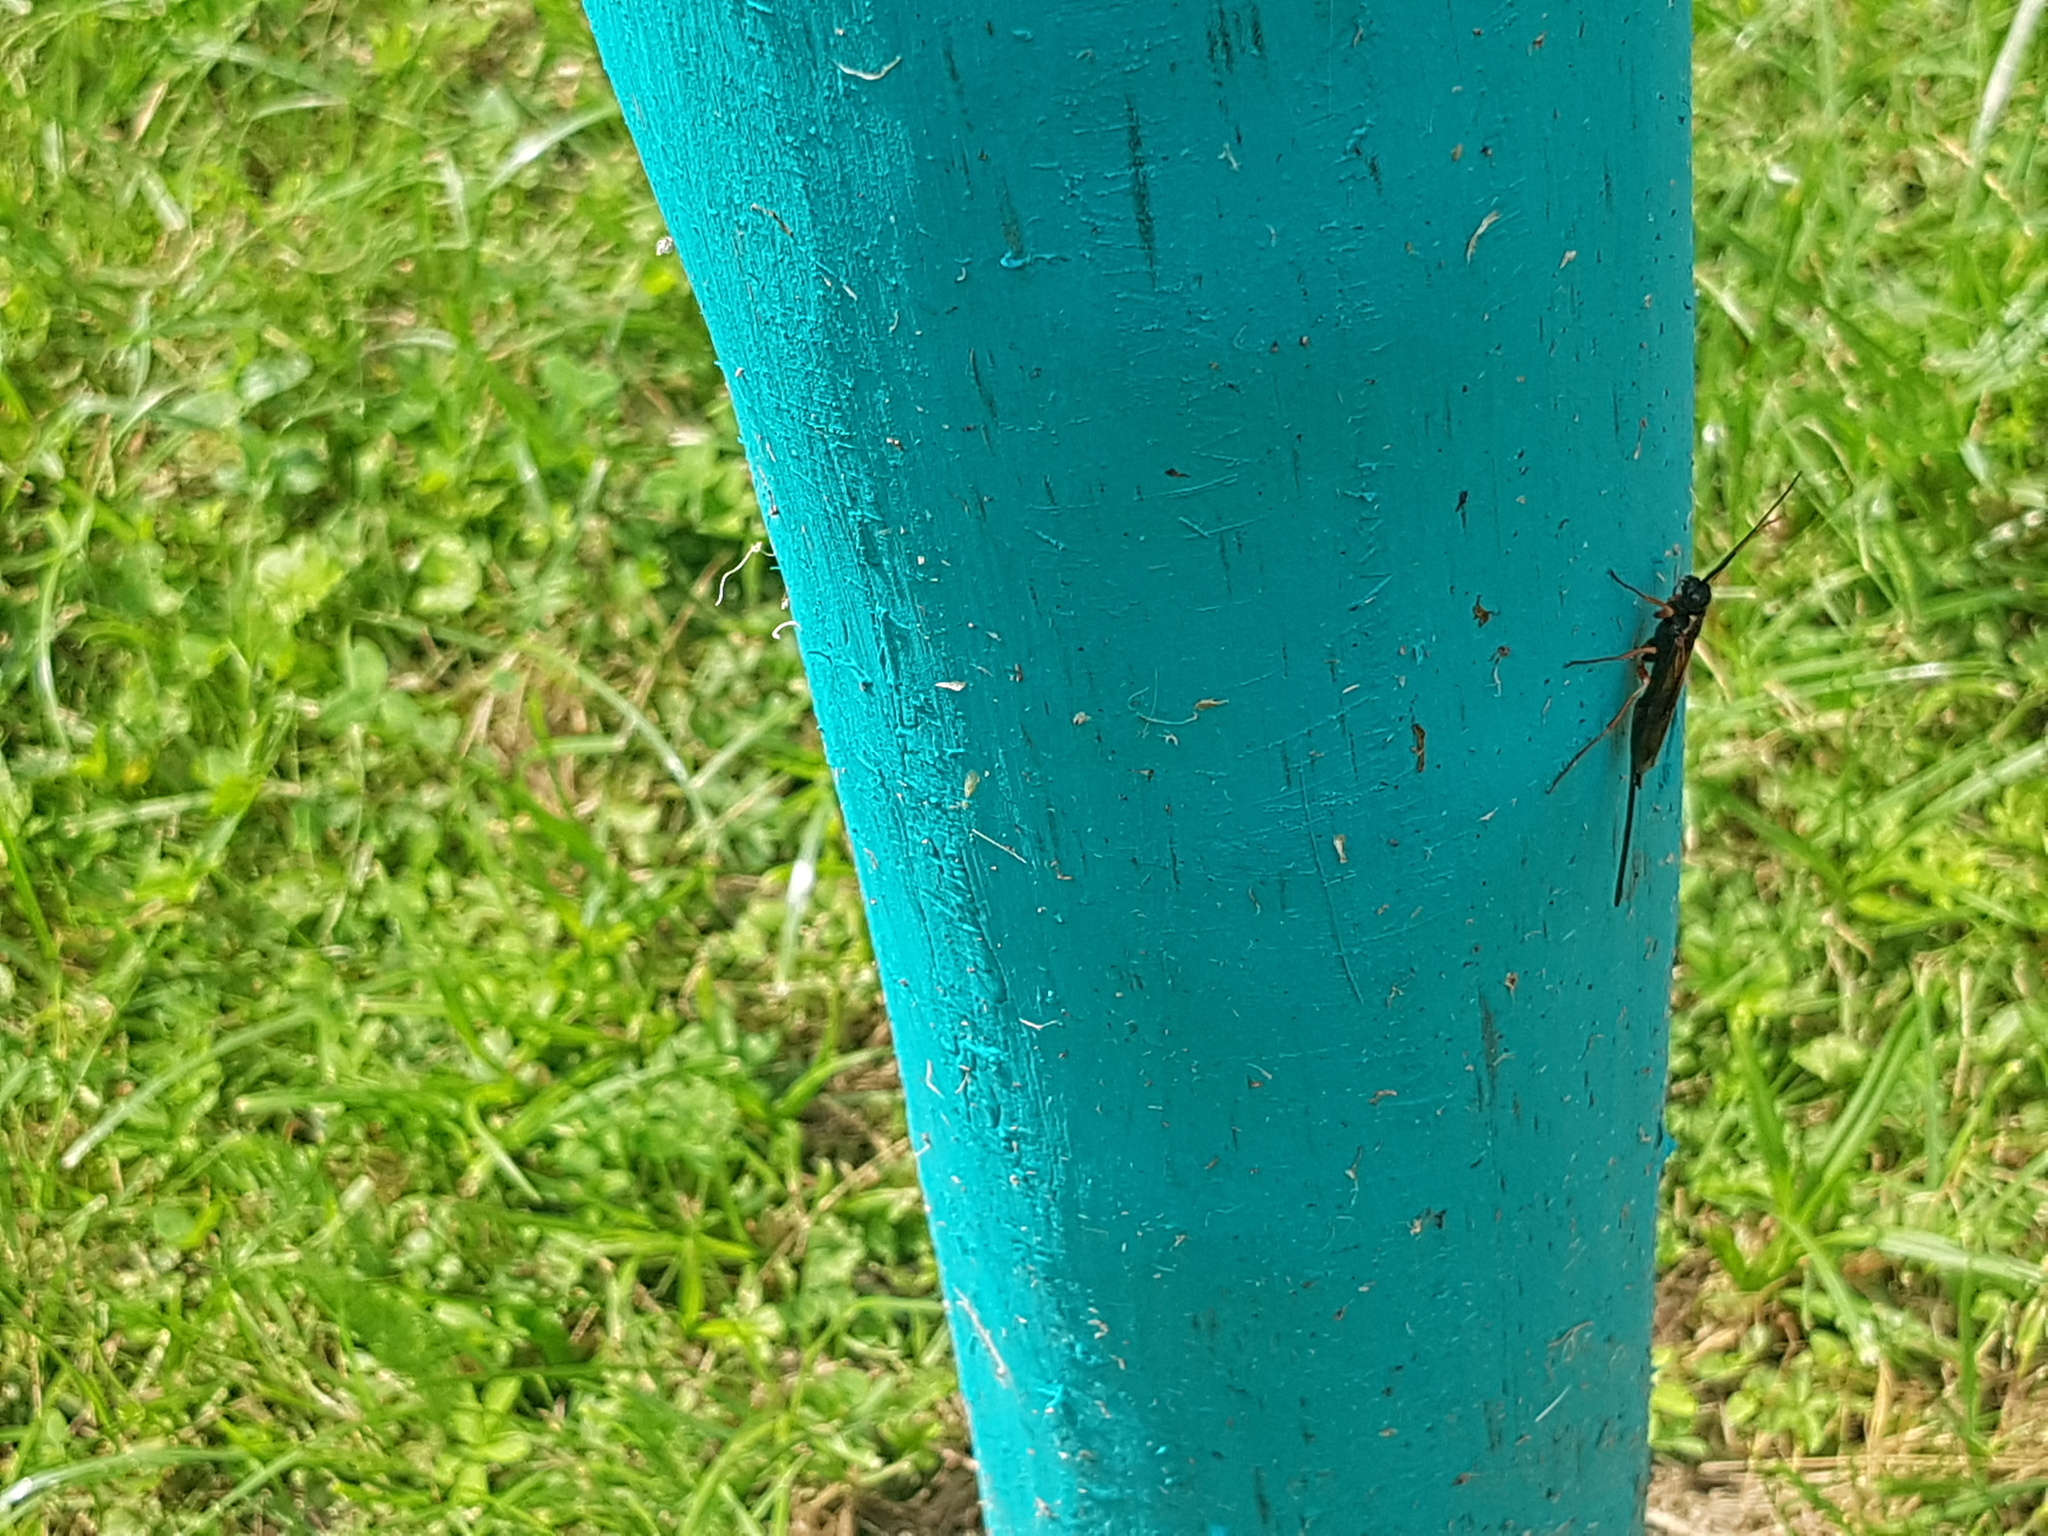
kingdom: Animalia
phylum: Arthropoda
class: Insecta
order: Hymenoptera
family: Siricidae
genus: Xeris
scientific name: Xeris spectrum
